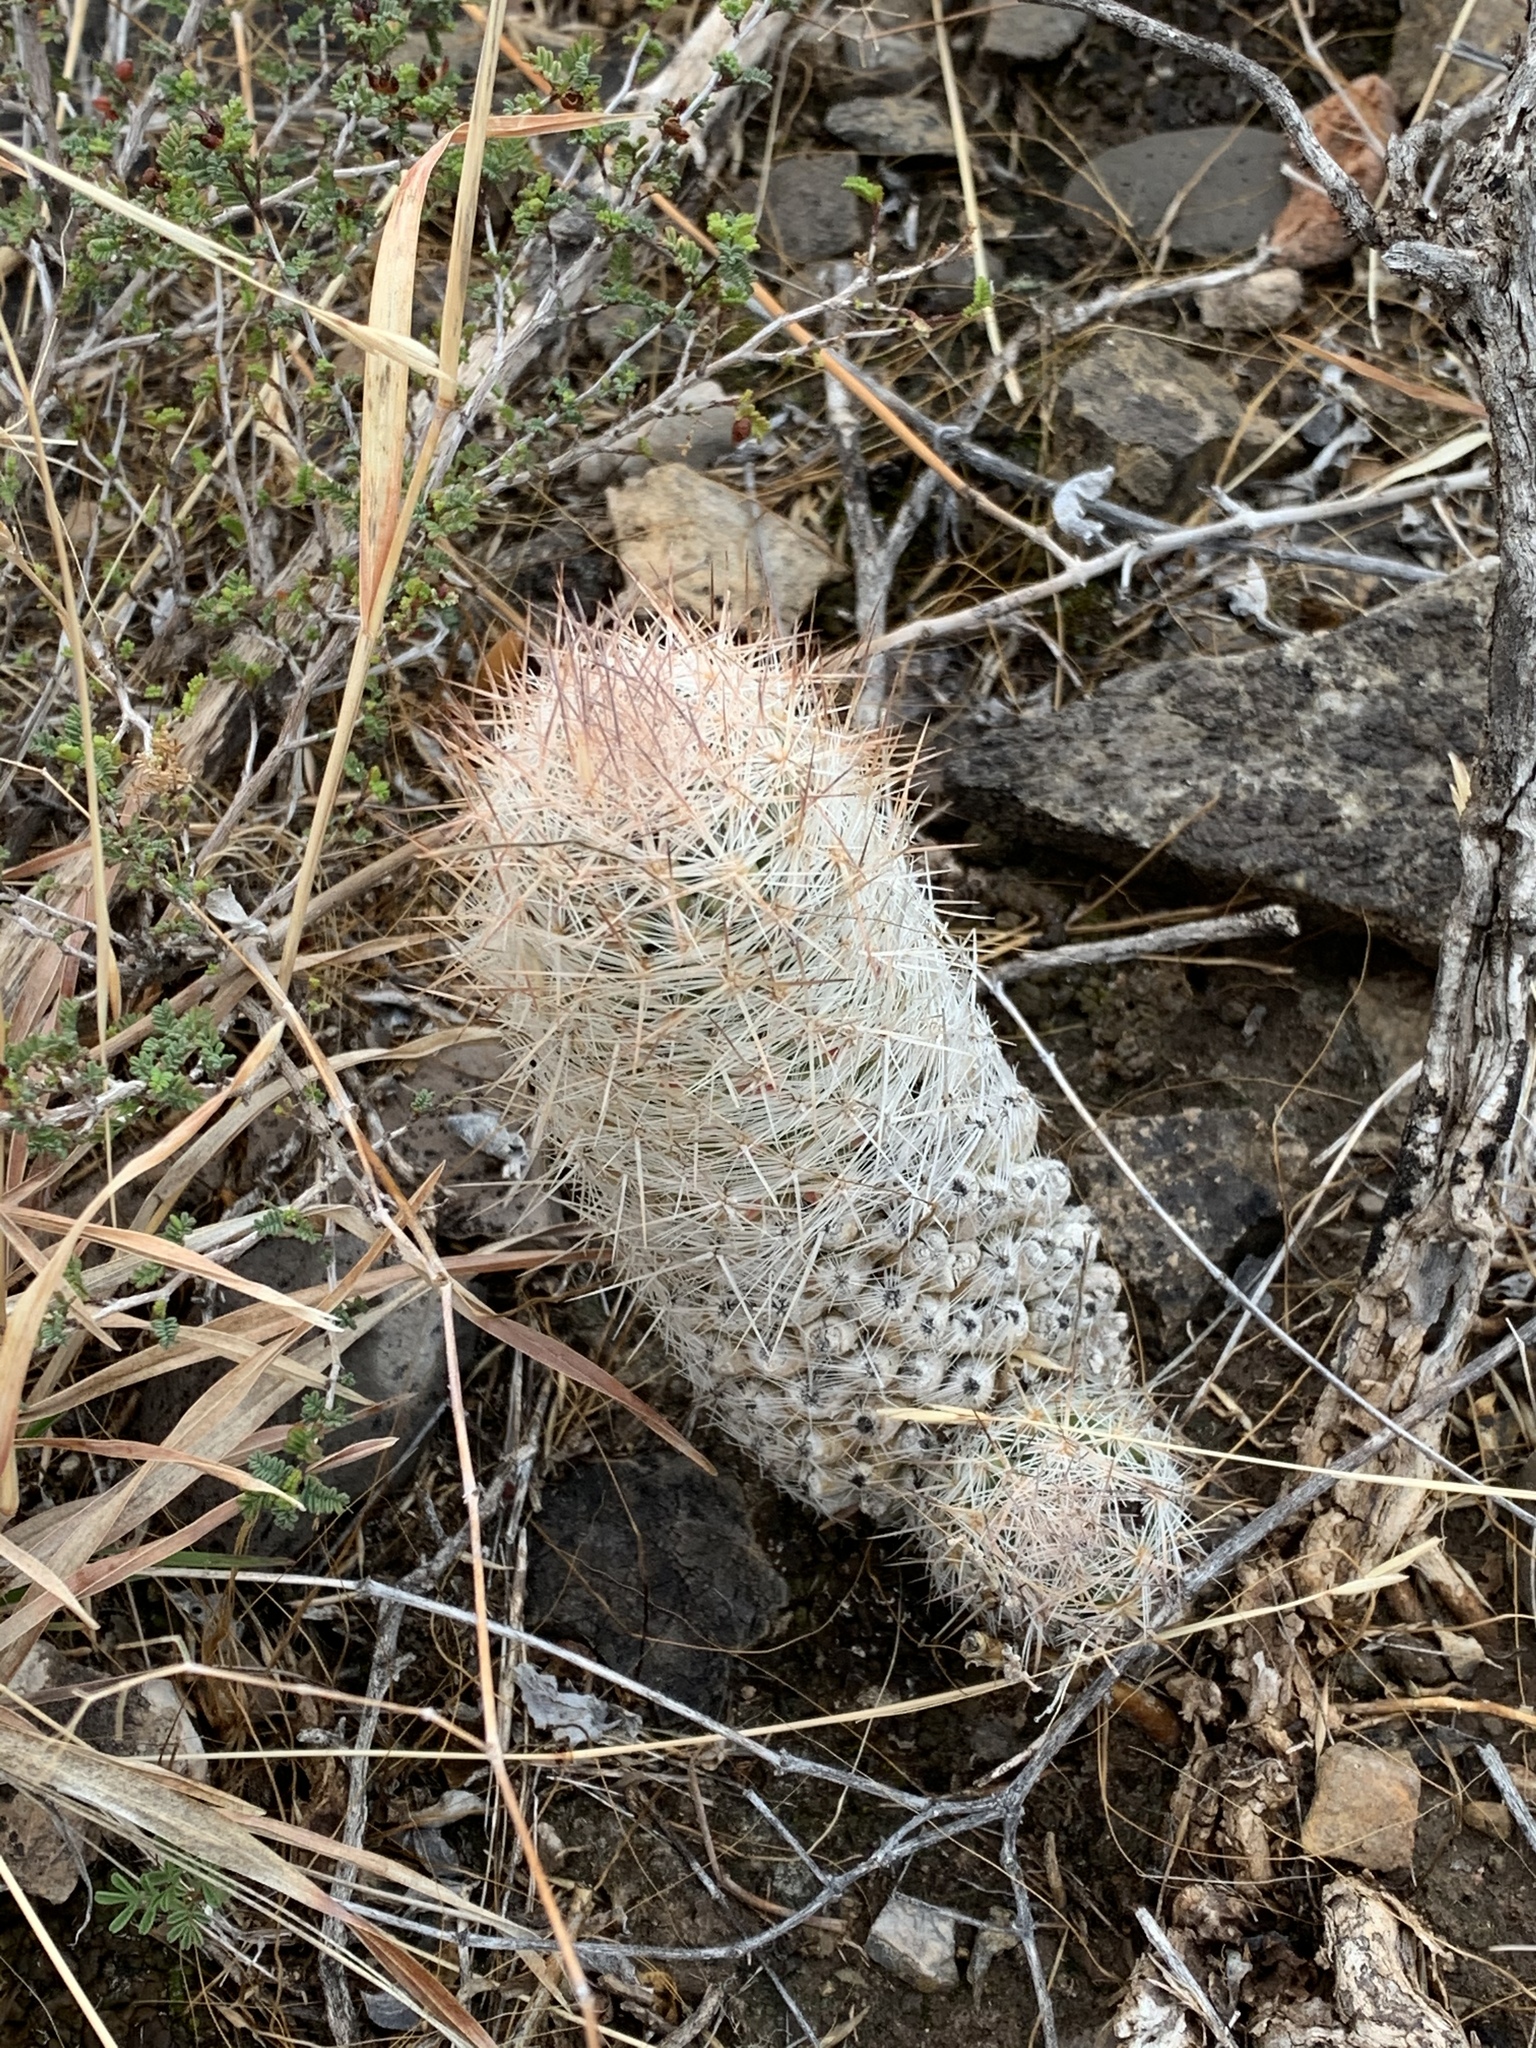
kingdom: Plantae
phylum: Tracheophyta
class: Magnoliopsida
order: Caryophyllales
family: Cactaceae
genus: Pelecyphora
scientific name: Pelecyphora tuberculosa
